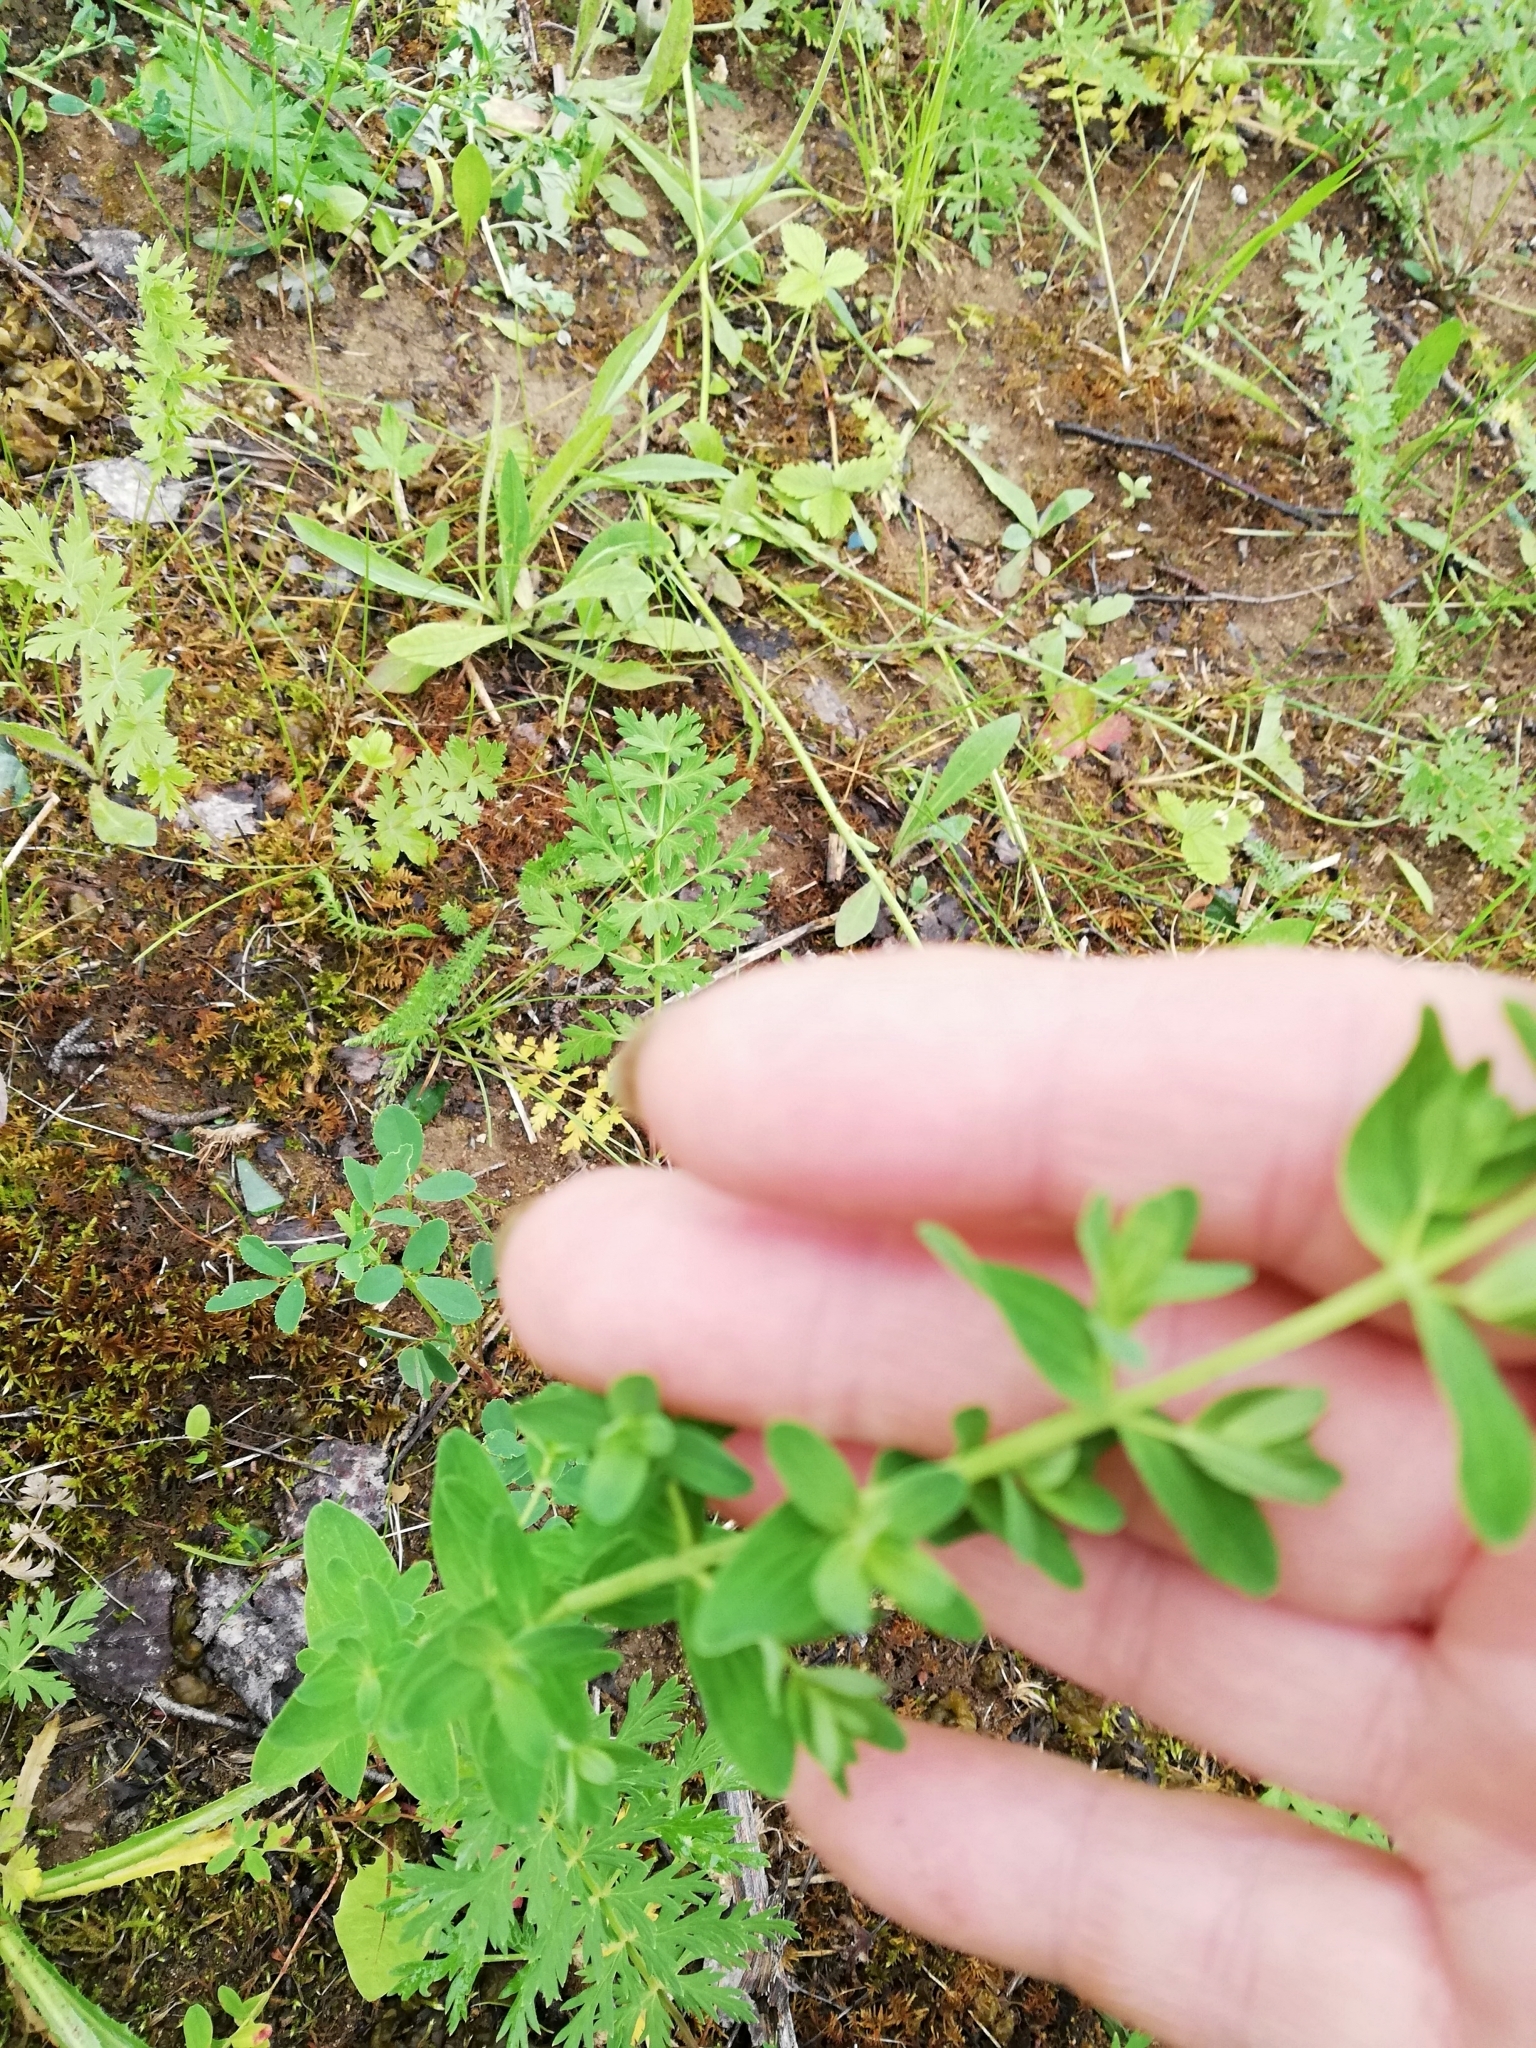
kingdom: Plantae
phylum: Tracheophyta
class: Magnoliopsida
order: Malpighiales
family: Hypericaceae
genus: Hypericum
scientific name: Hypericum perforatum
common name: Common st. johnswort
